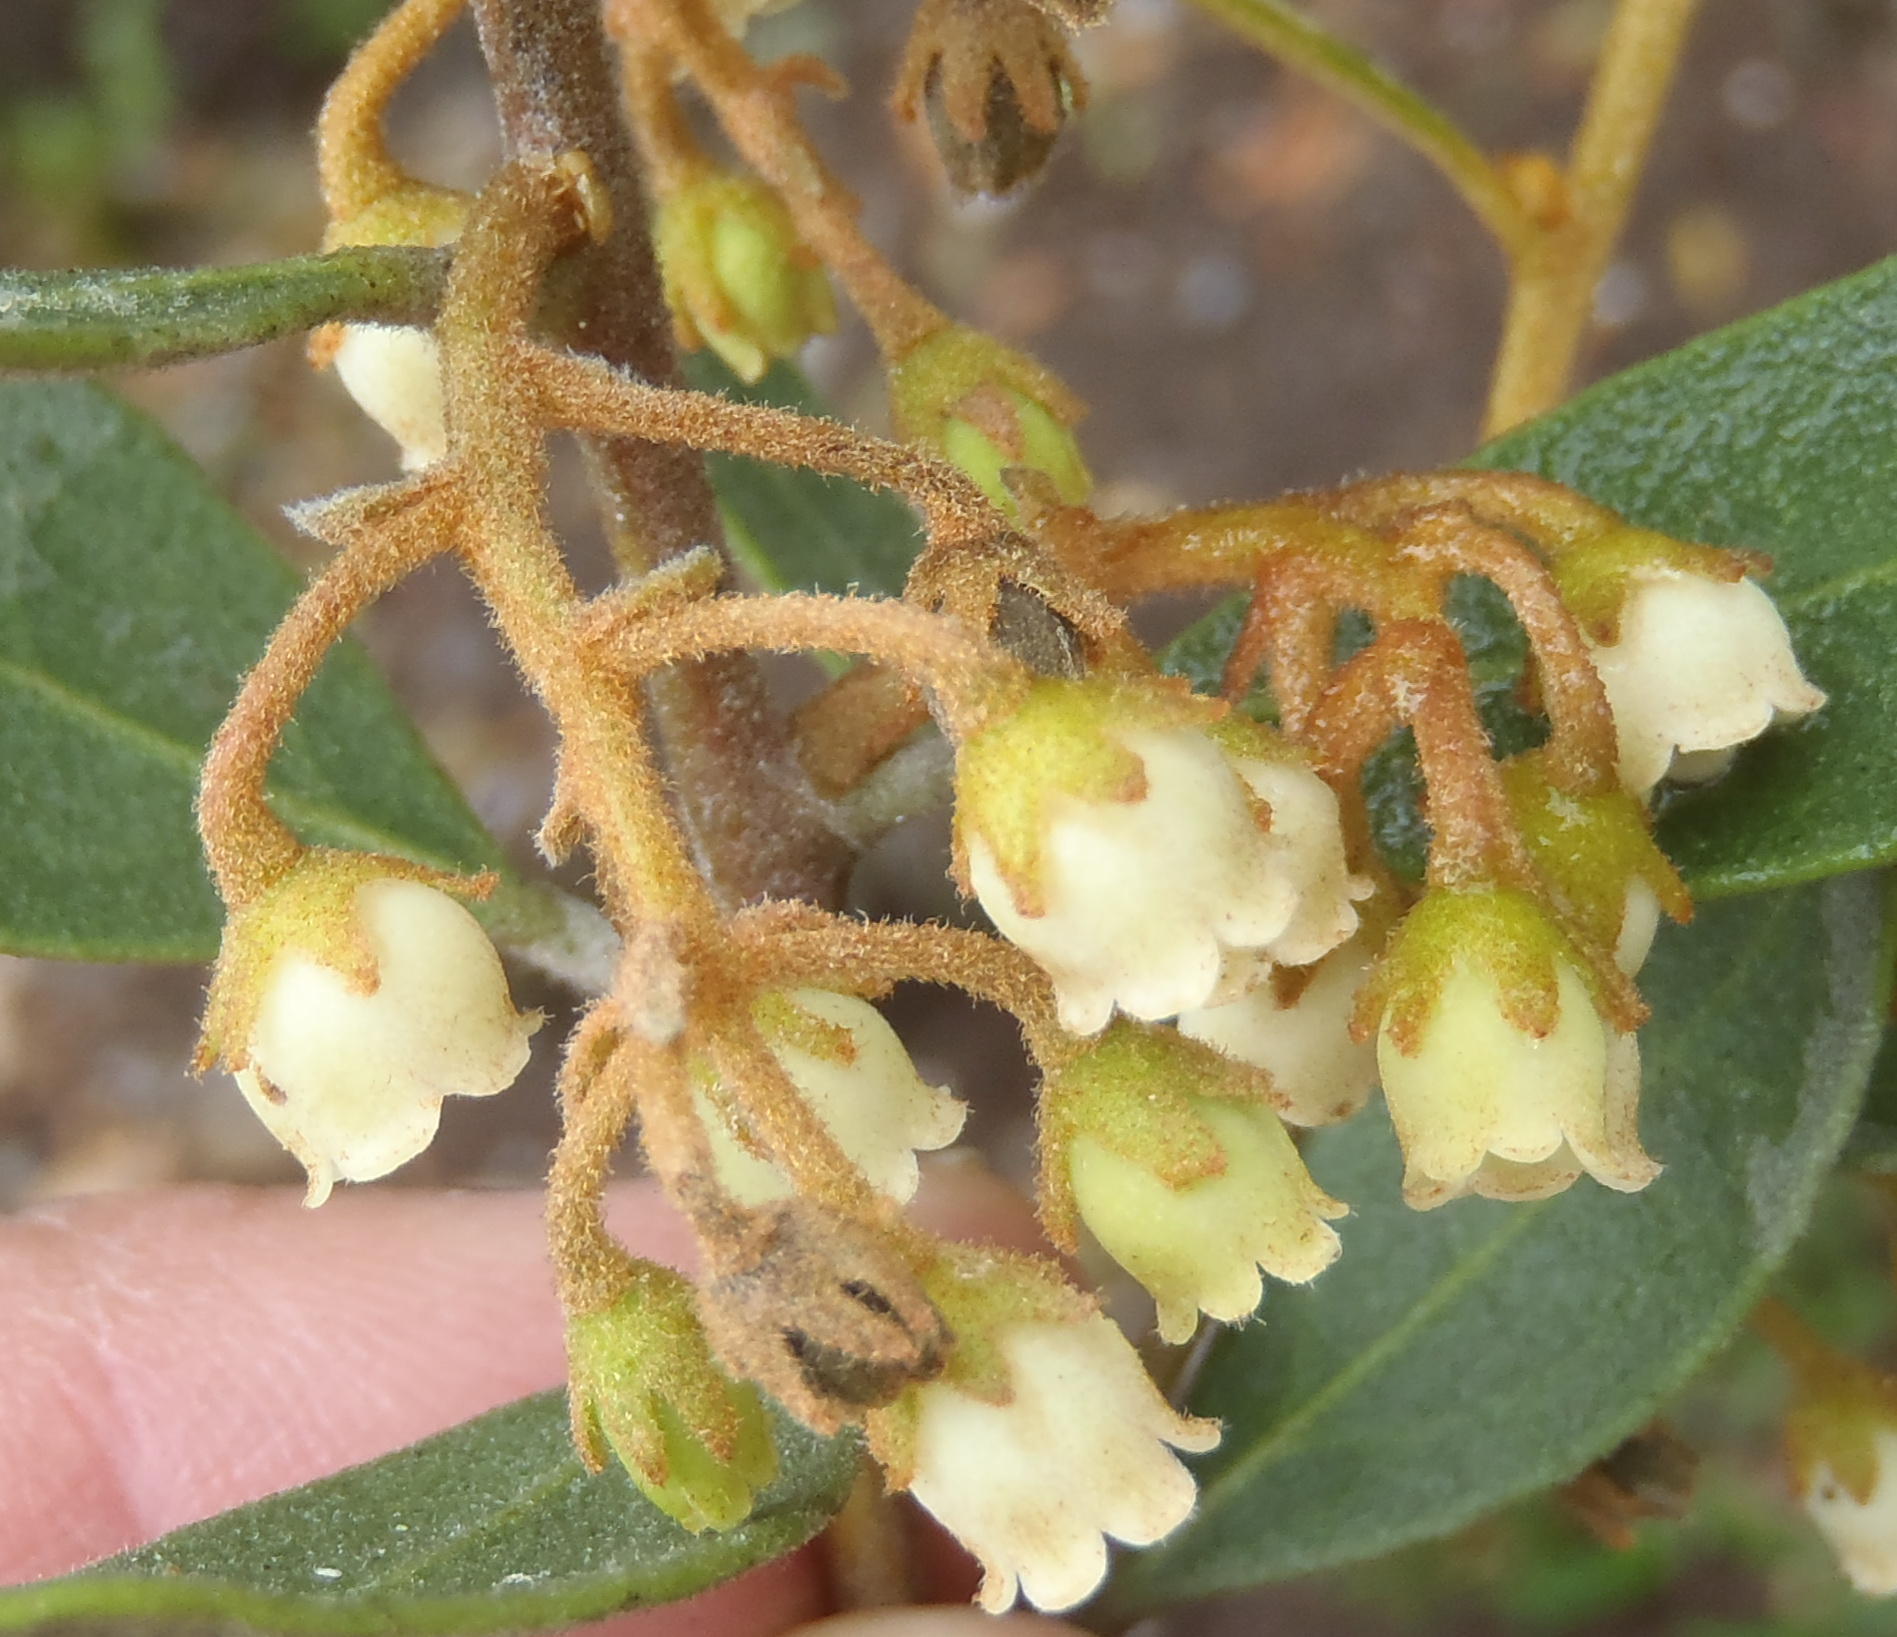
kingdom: Plantae
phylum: Tracheophyta
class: Magnoliopsida
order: Ericales
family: Ebenaceae
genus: Euclea
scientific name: Euclea polyandra
